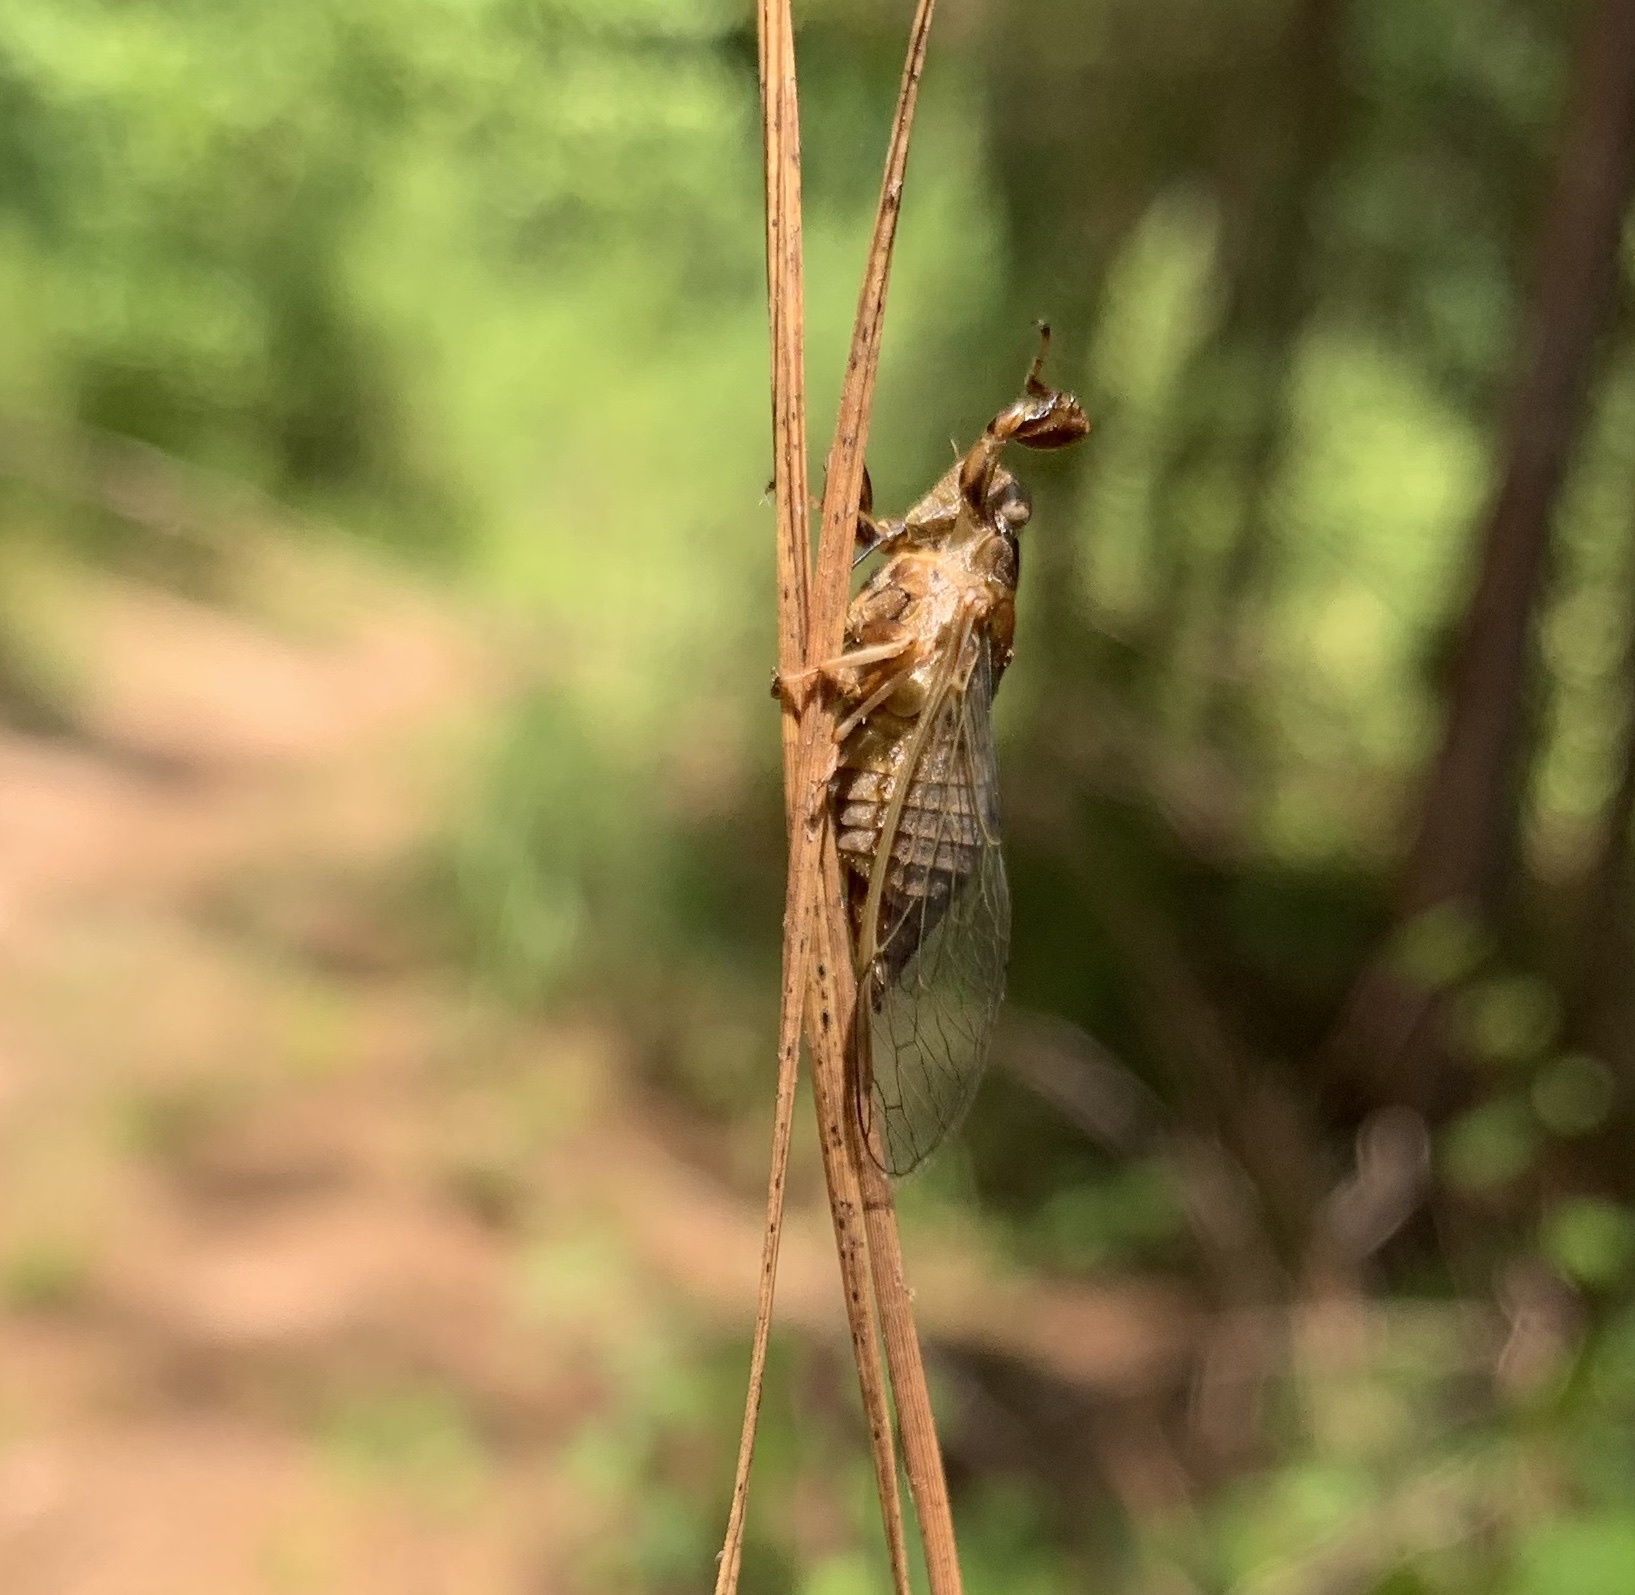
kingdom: Animalia
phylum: Arthropoda
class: Insecta
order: Hemiptera
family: Cicadidae
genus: Cicadettana
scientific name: Cicadettana calliope
